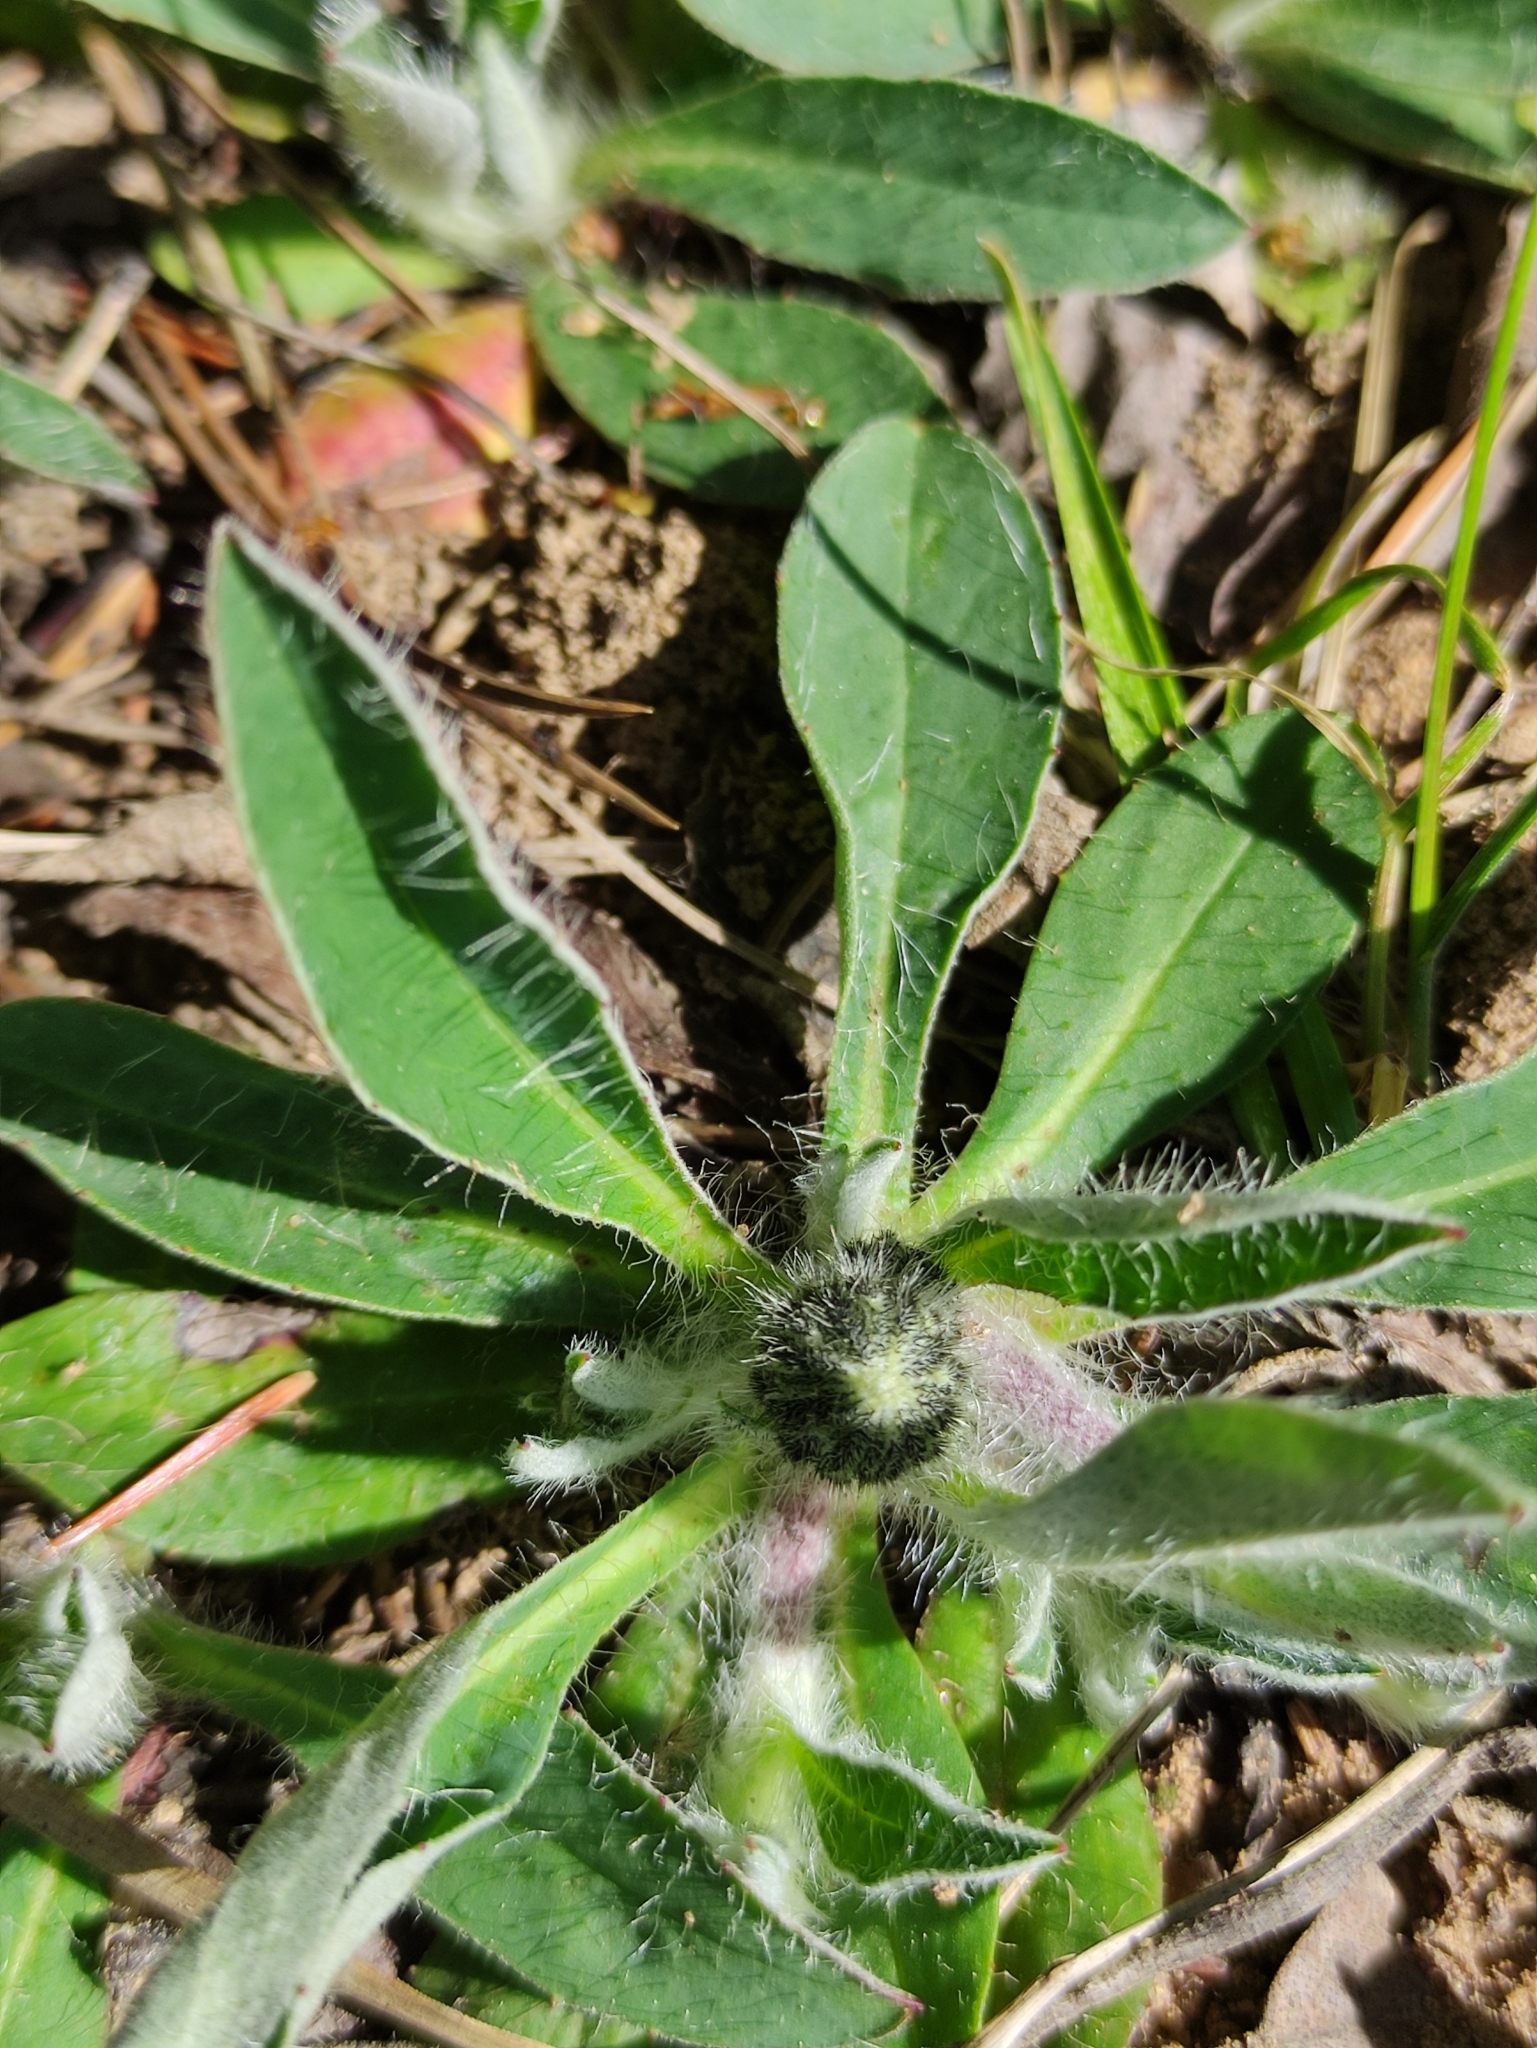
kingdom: Plantae
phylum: Tracheophyta
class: Magnoliopsida
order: Asterales
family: Asteraceae
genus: Pilosella
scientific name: Pilosella officinarum
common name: Mouse-ear hawkweed
